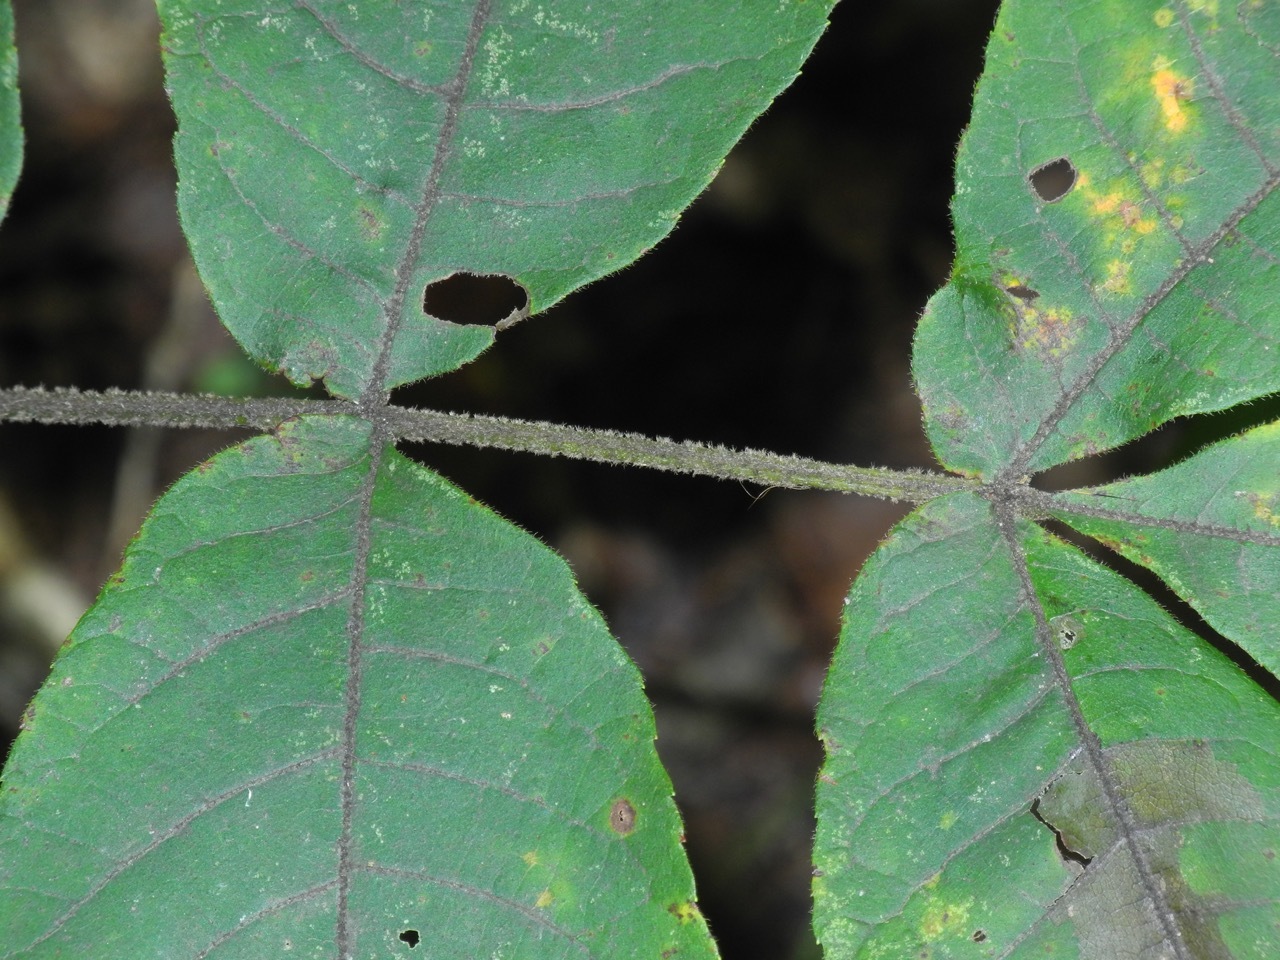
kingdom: Plantae
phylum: Tracheophyta
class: Magnoliopsida
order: Fagales
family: Juglandaceae
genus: Carya
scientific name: Carya alba
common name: Mockernut hickory
